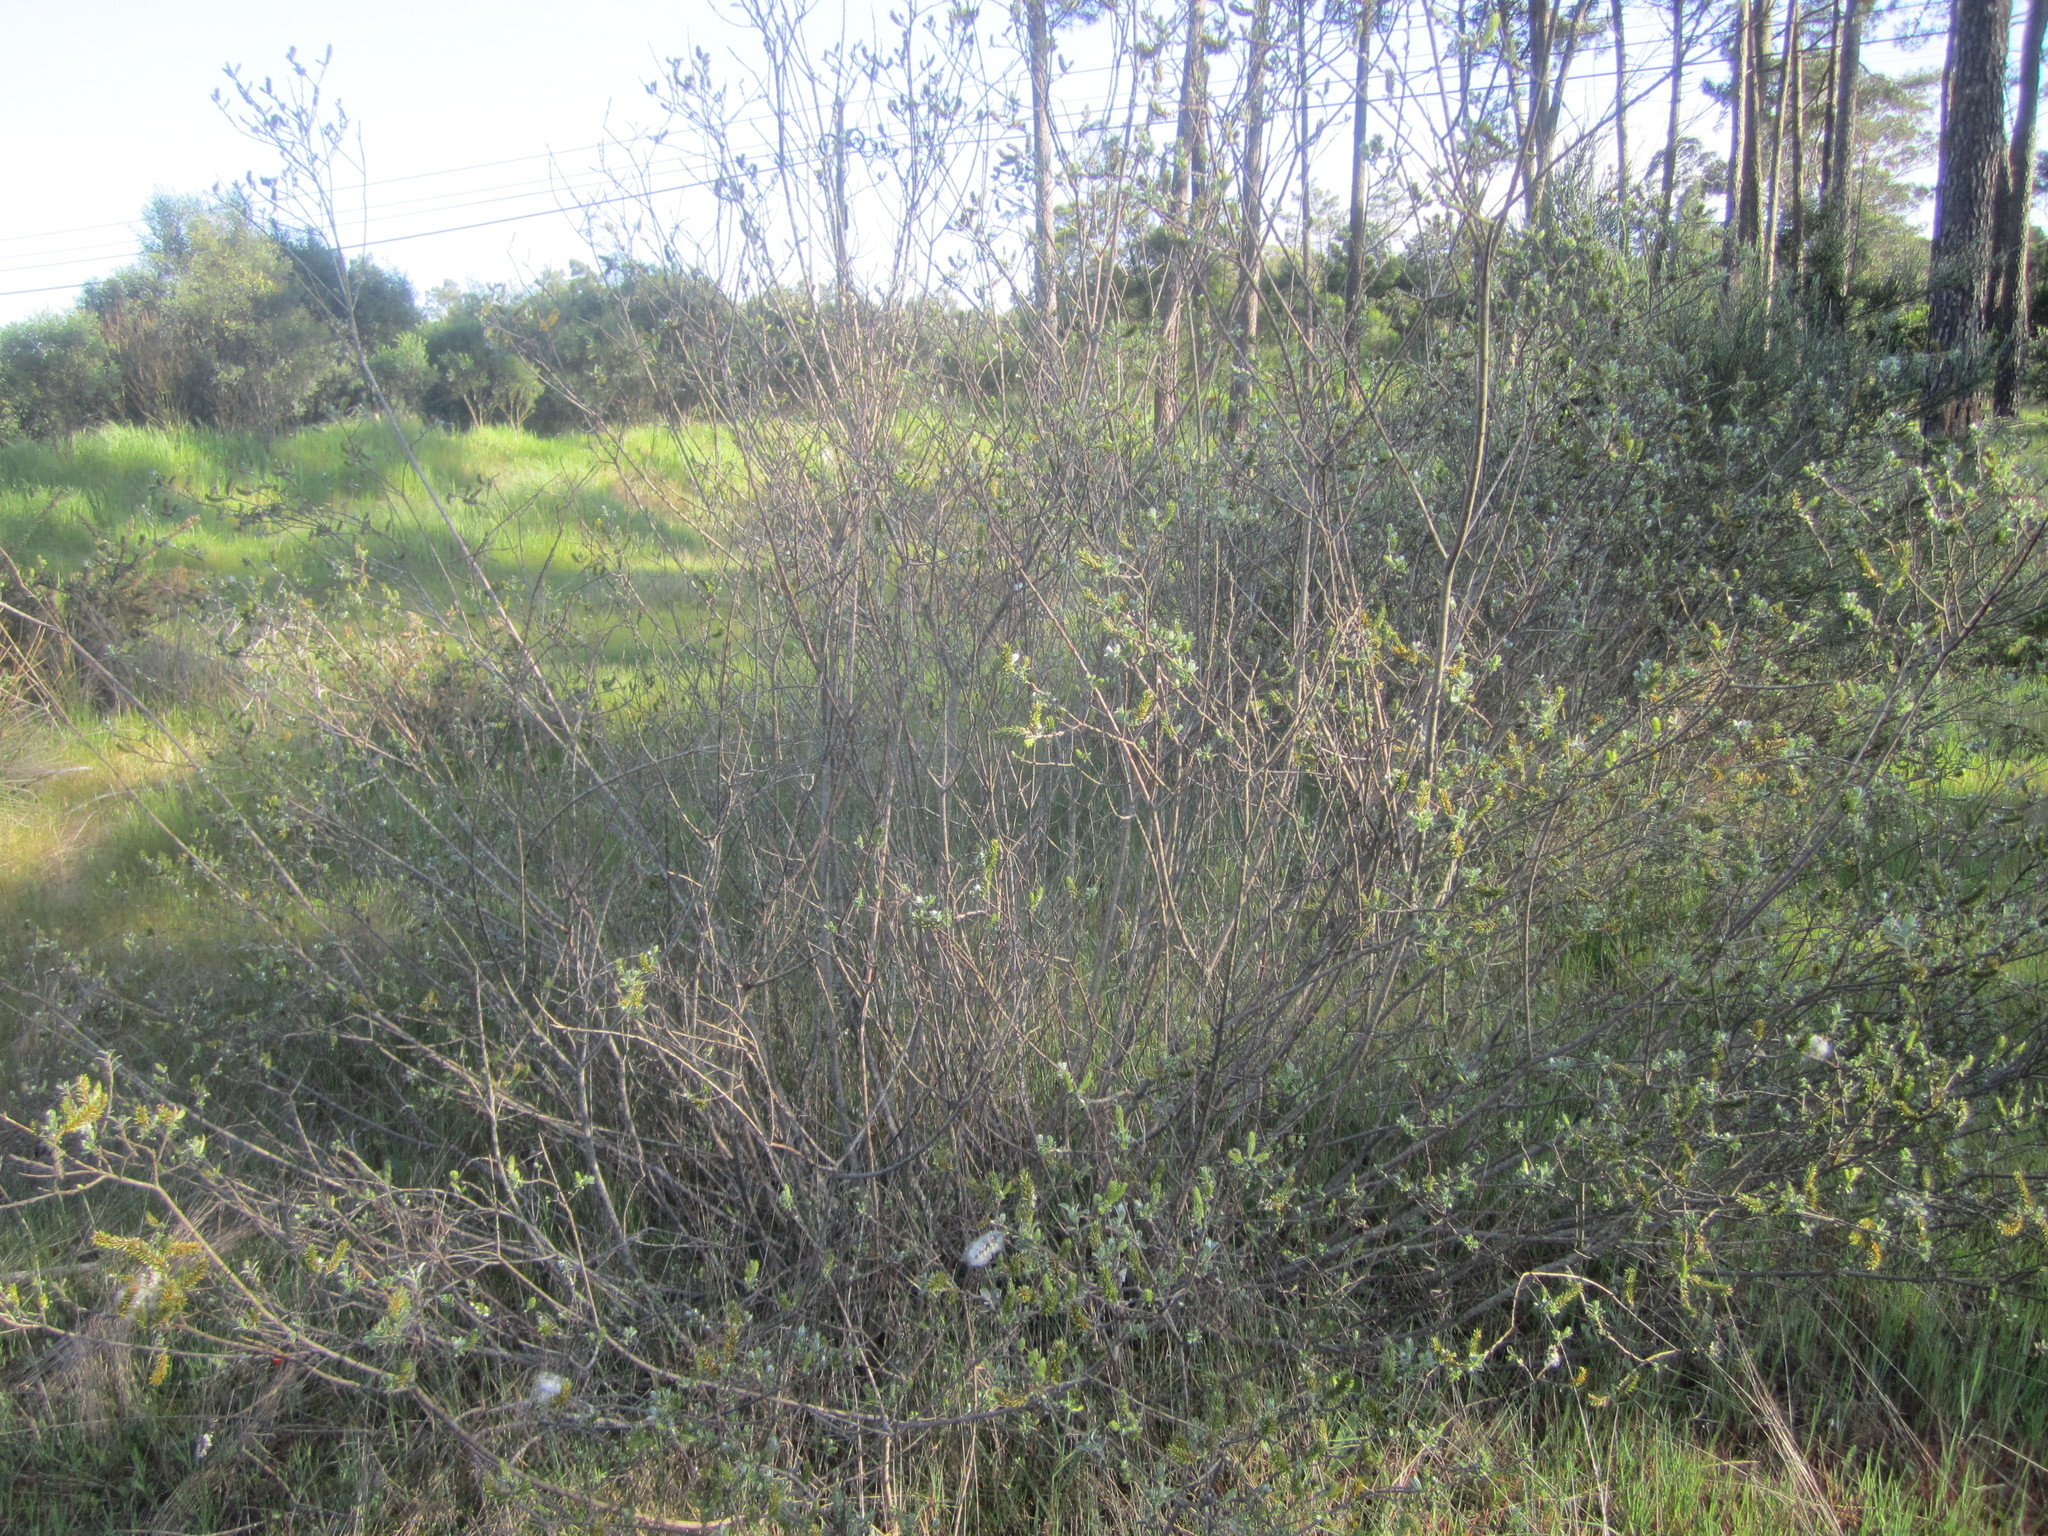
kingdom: Plantae
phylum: Tracheophyta
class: Magnoliopsida
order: Malpighiales
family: Salicaceae
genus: Salix
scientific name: Salix repens
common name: Creeping willow
